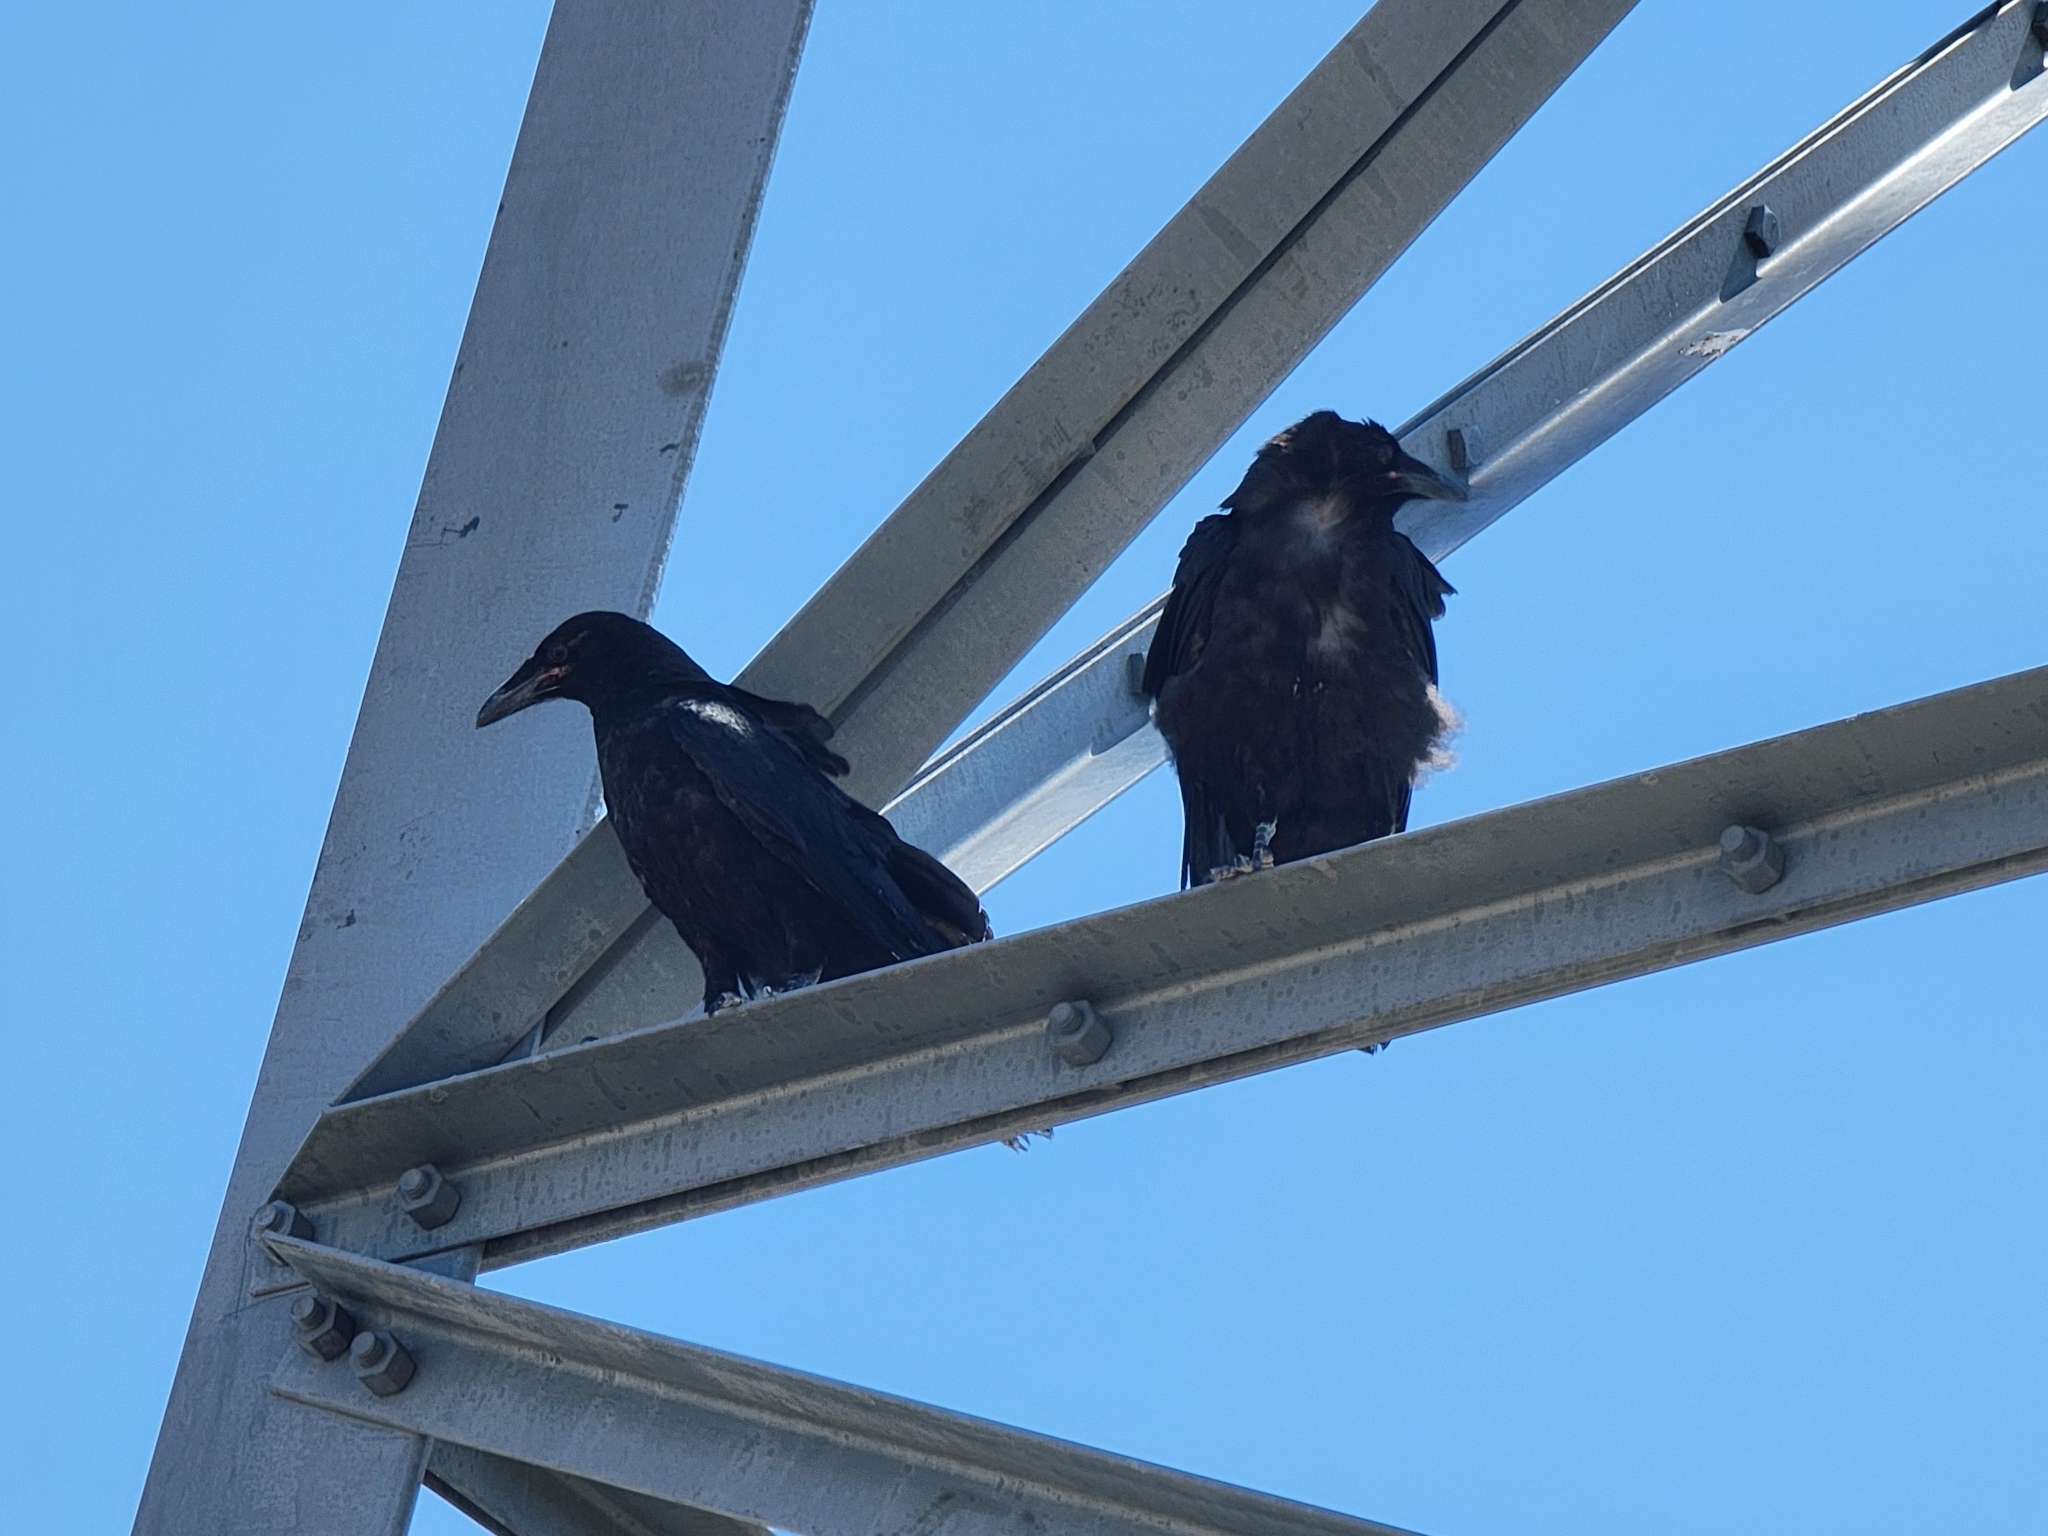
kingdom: Animalia
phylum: Chordata
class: Aves
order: Passeriformes
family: Corvidae
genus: Corvus
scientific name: Corvus corax
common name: Common raven
